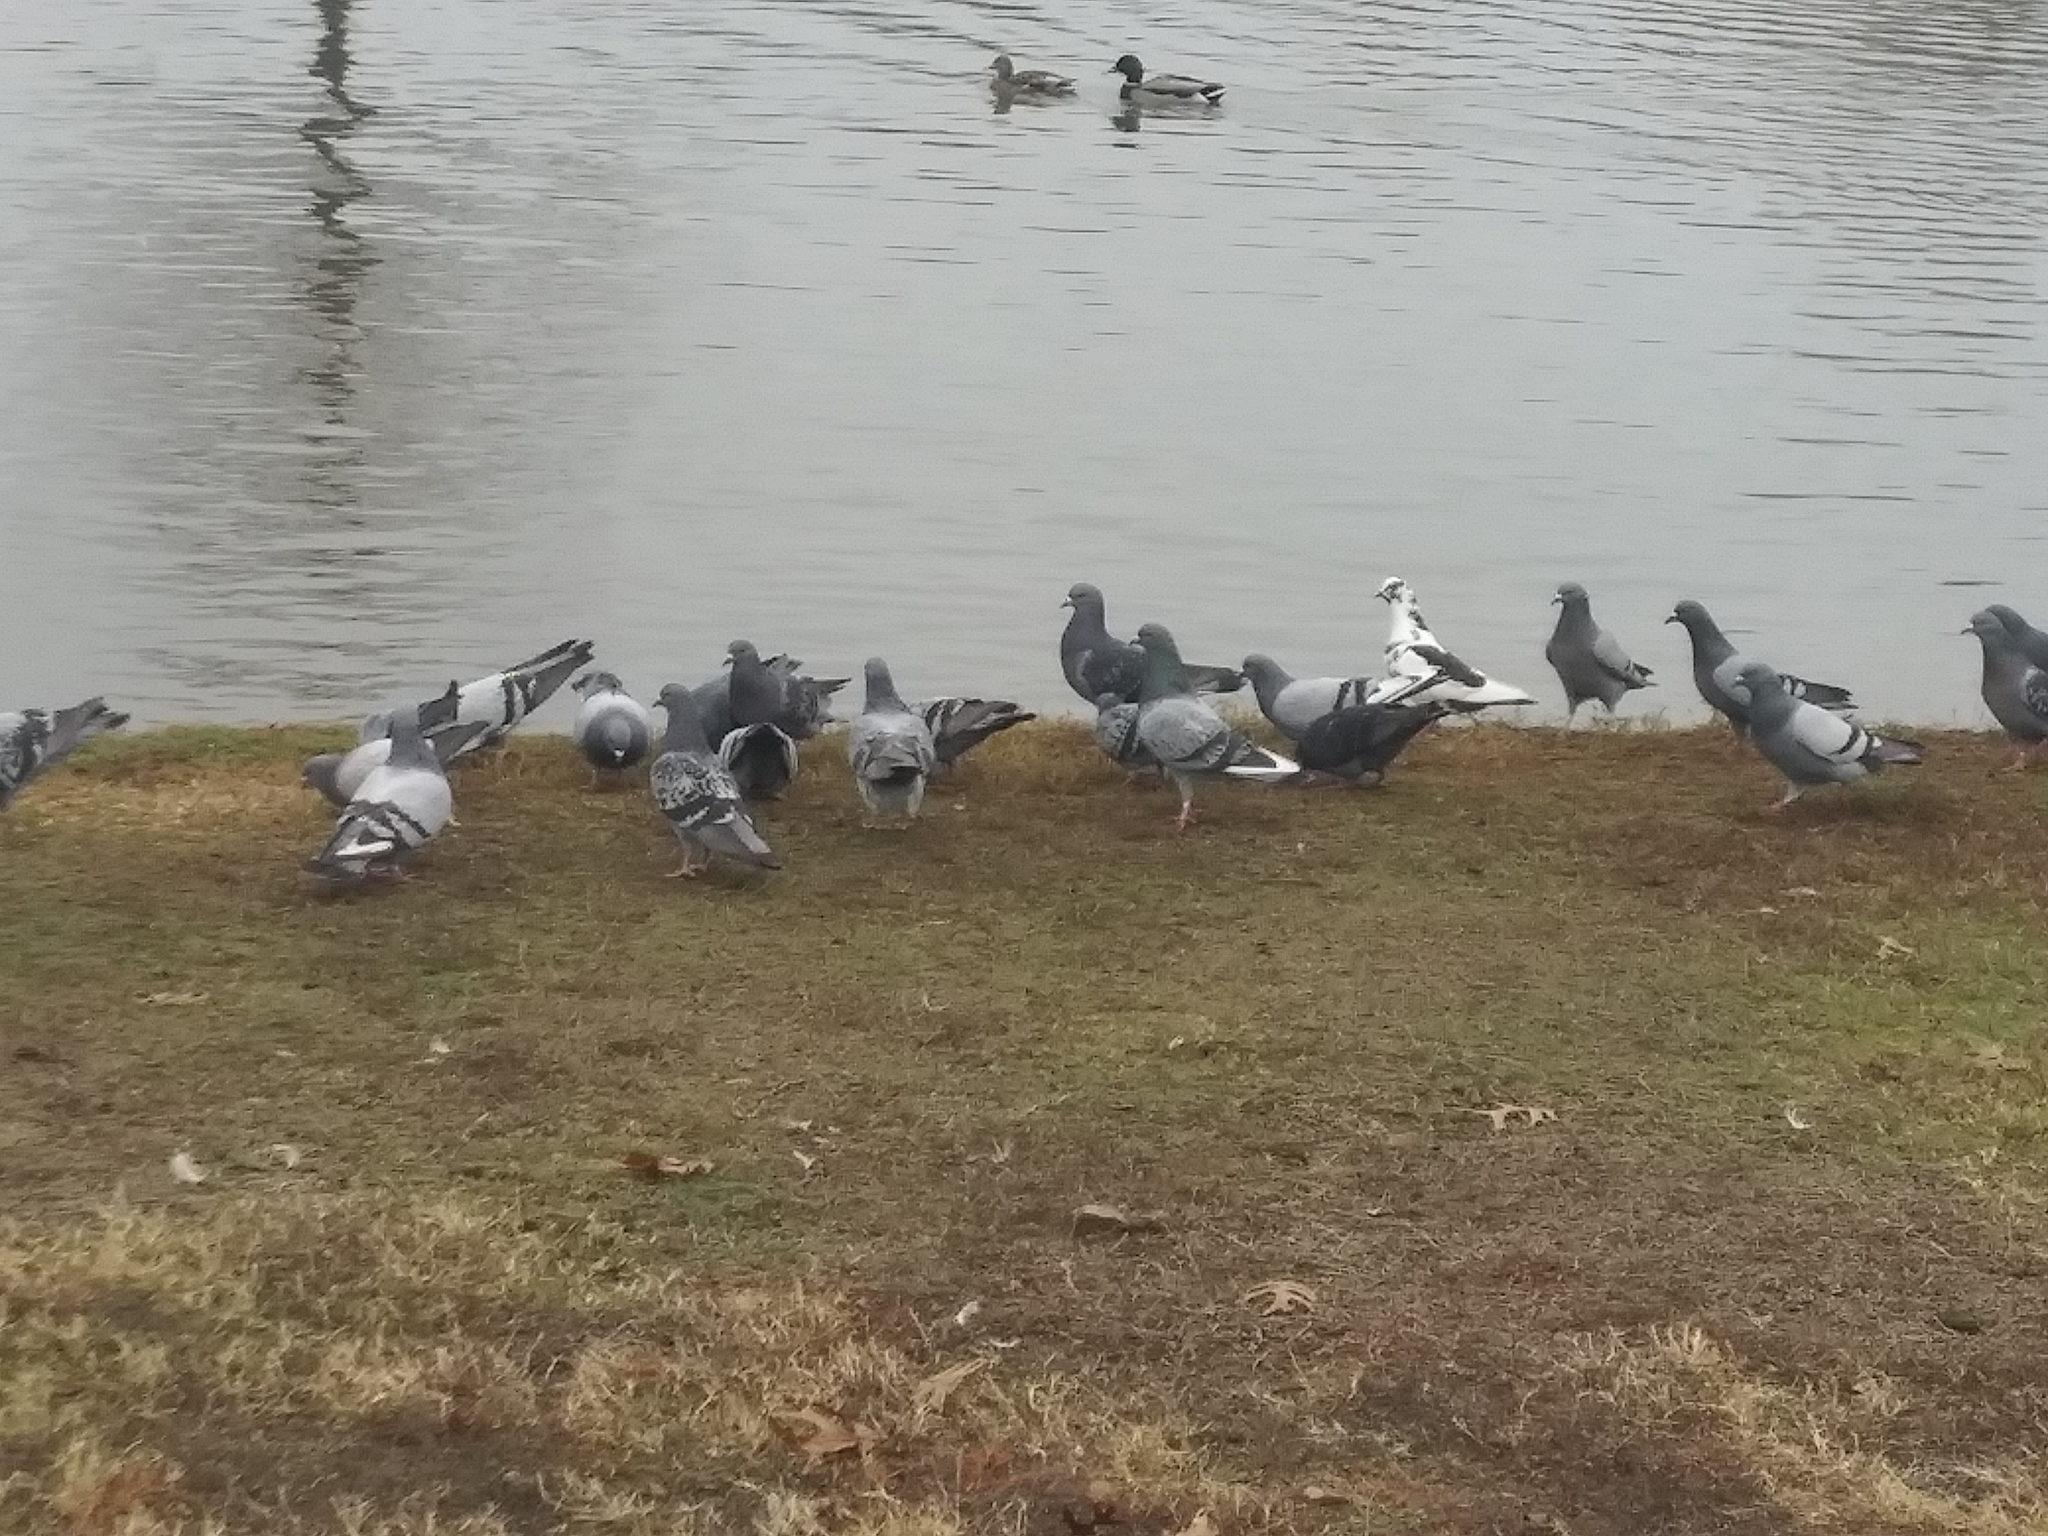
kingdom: Animalia
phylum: Chordata
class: Aves
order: Columbiformes
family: Columbidae
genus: Columba
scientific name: Columba livia
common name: Rock pigeon
